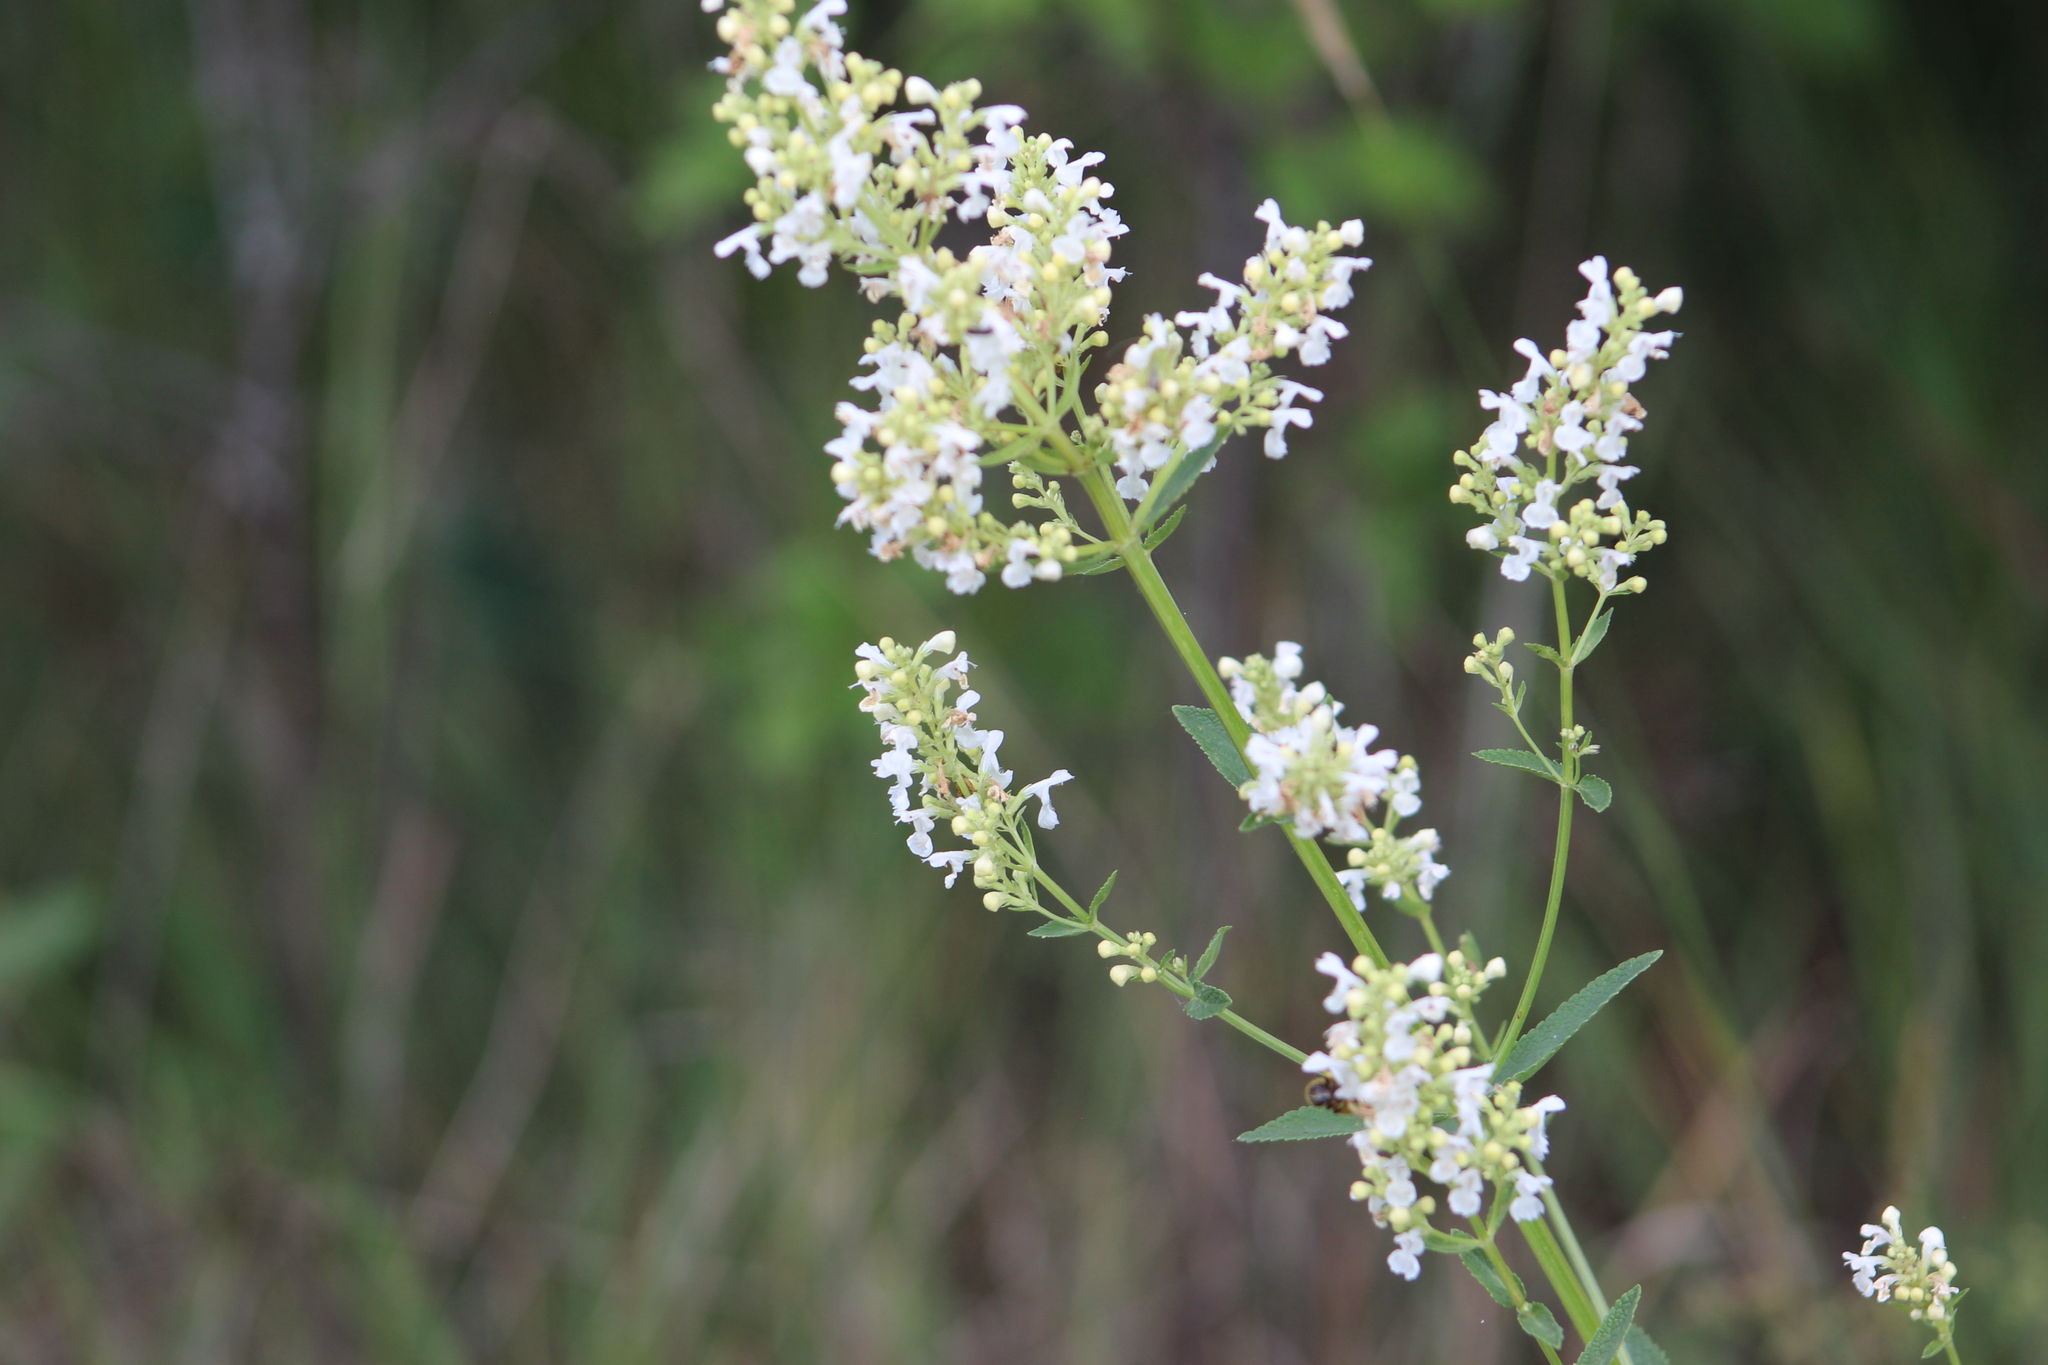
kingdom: Plantae
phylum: Tracheophyta
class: Magnoliopsida
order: Lamiales
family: Lamiaceae
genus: Nepeta
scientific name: Nepeta nuda
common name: Hairless catmint
